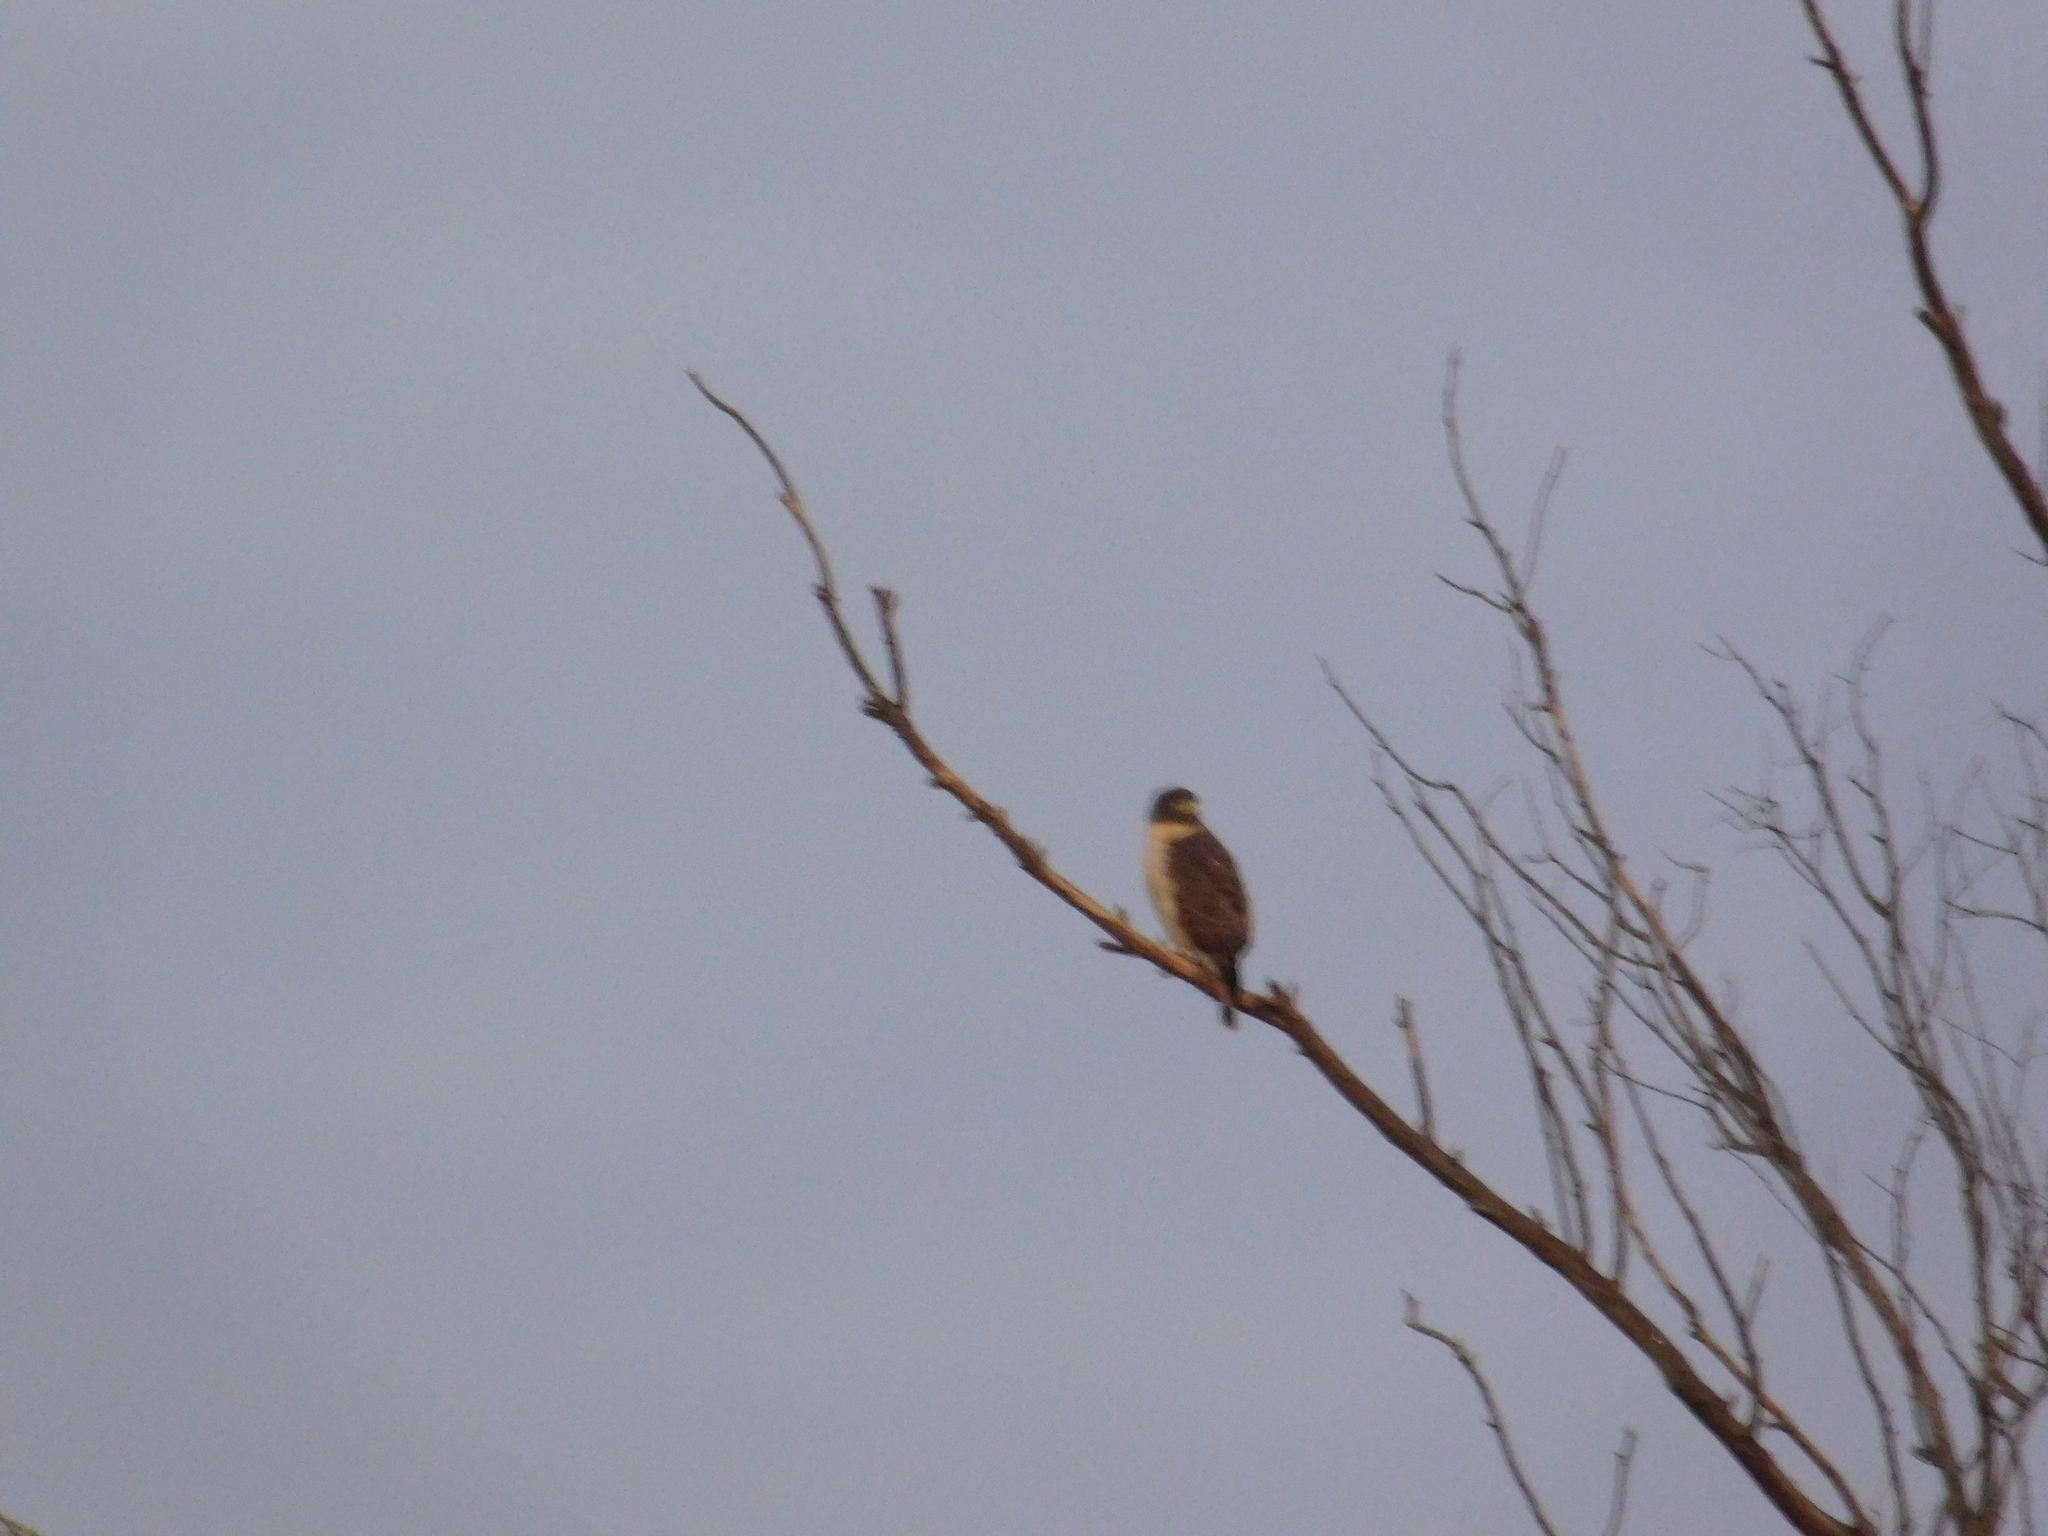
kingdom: Animalia
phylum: Chordata
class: Aves
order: Accipitriformes
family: Accipitridae
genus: Rupornis
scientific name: Rupornis magnirostris
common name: Roadside hawk
